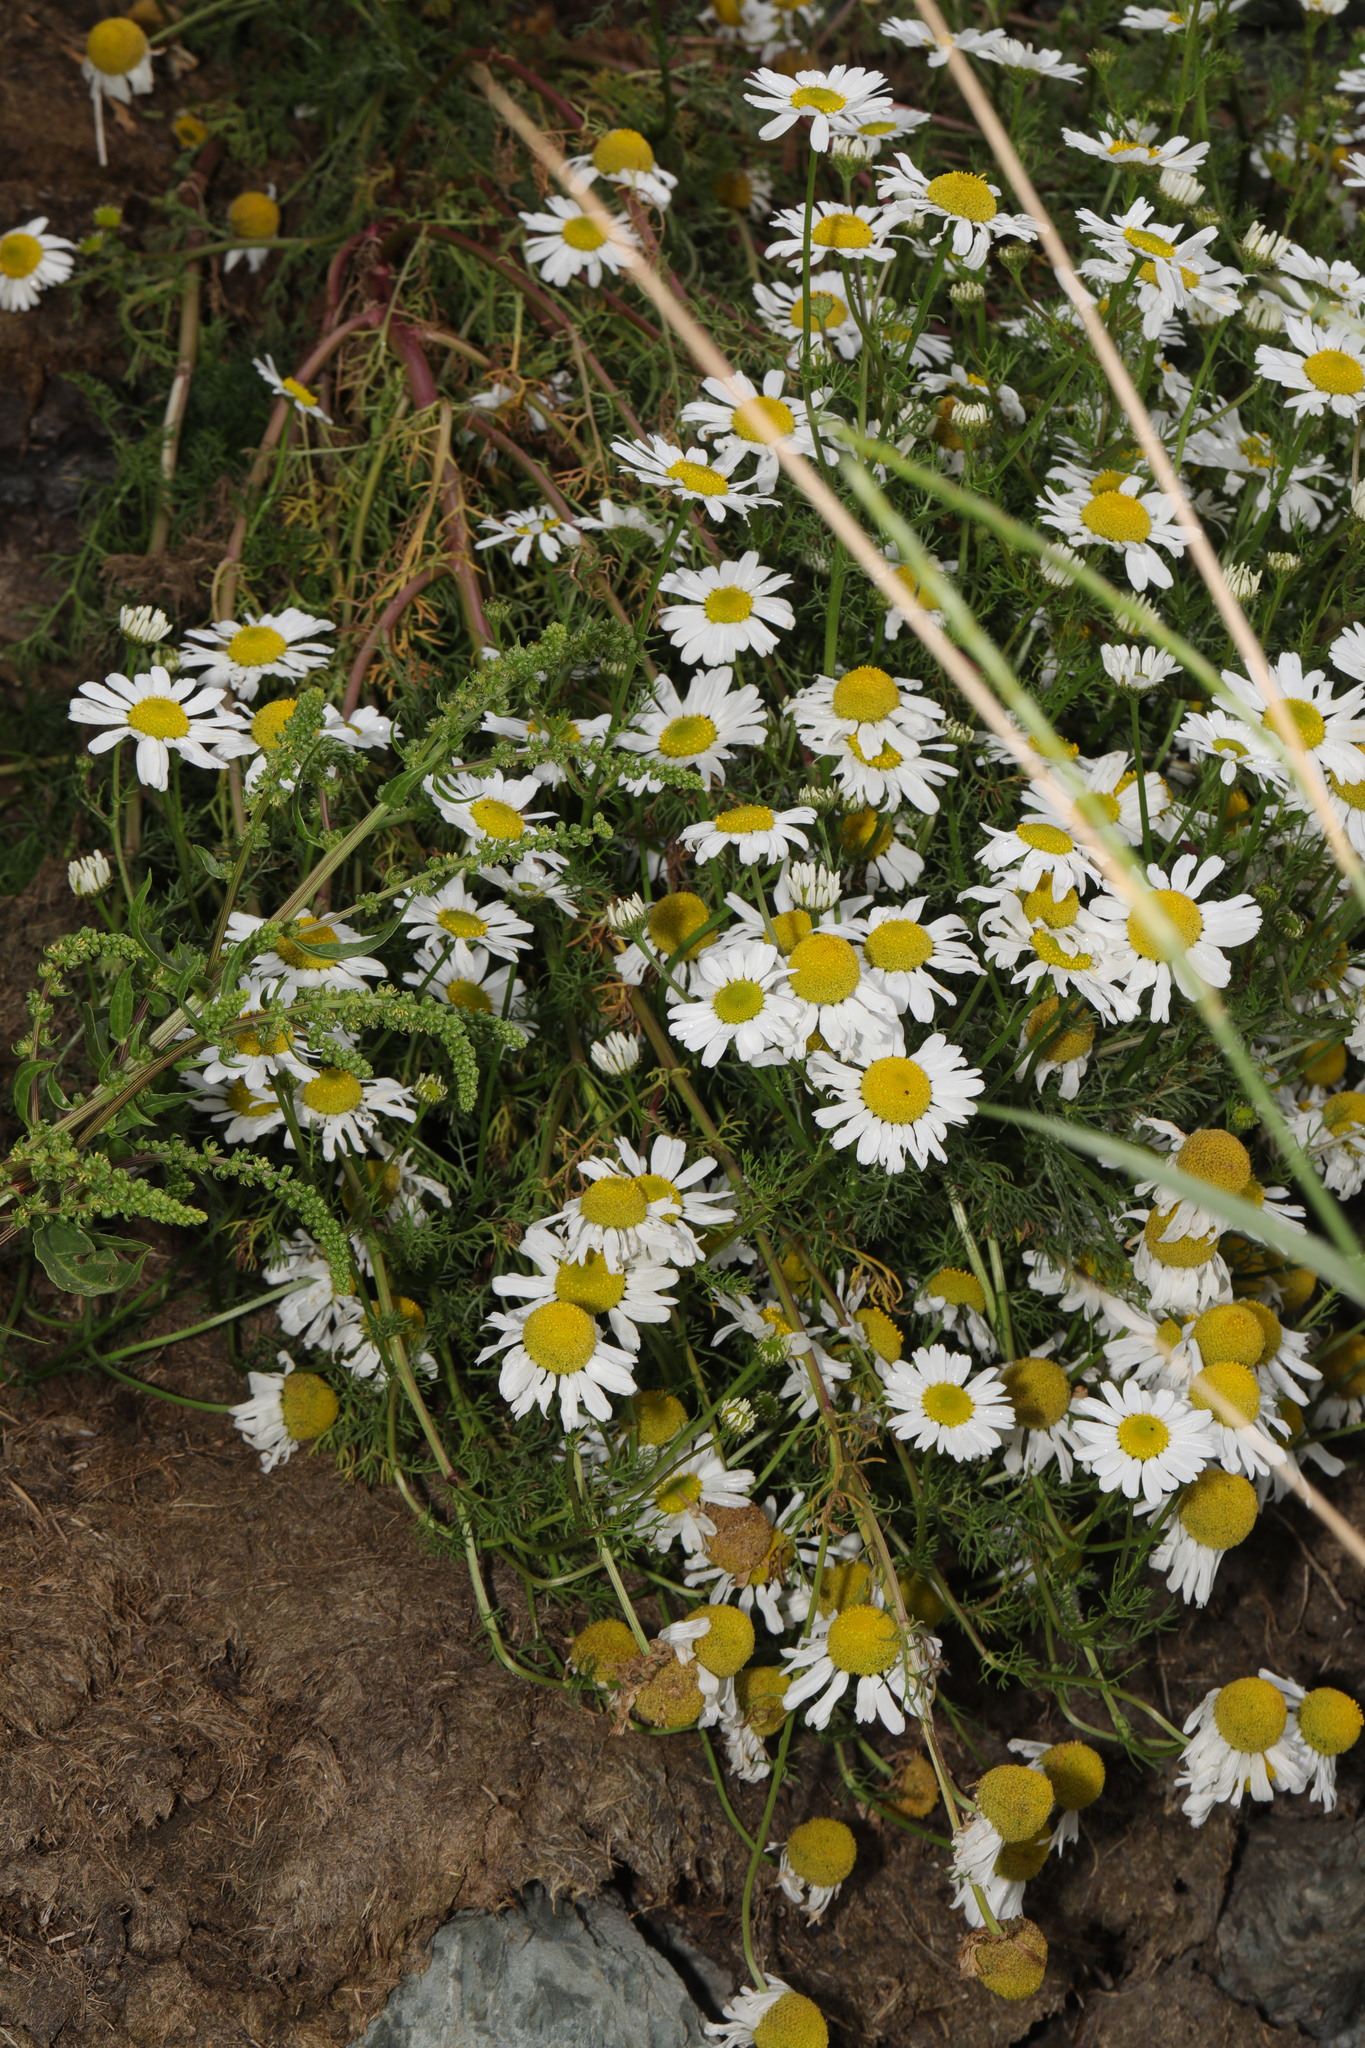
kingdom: Plantae
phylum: Tracheophyta
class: Magnoliopsida
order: Asterales
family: Asteraceae
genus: Tripleurospermum
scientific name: Tripleurospermum maritimum
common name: Sea mayweed
